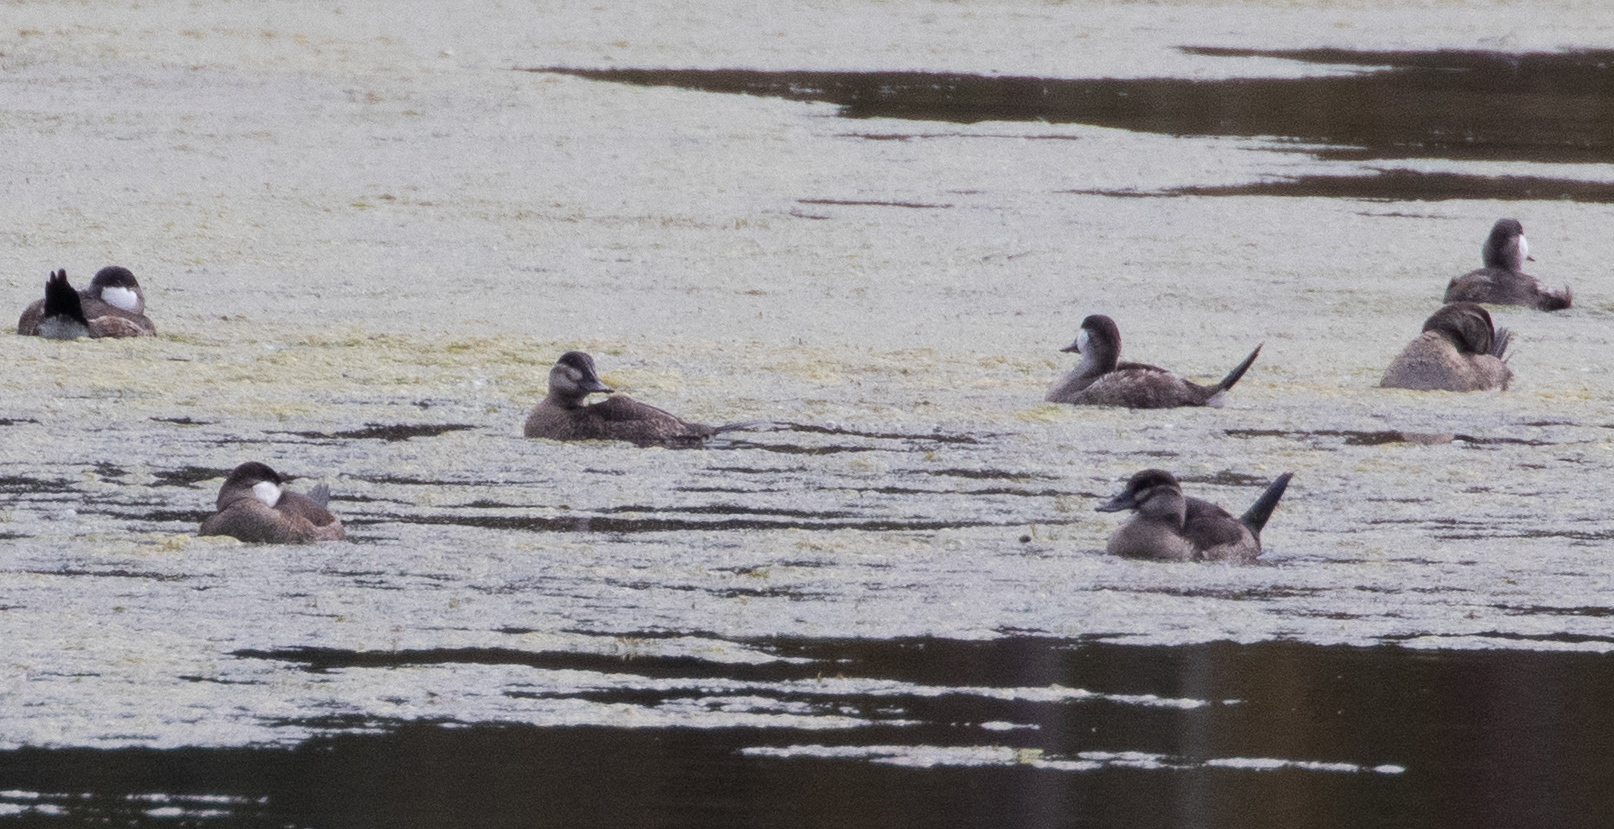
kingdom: Animalia
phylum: Chordata
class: Aves
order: Anseriformes
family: Anatidae
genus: Oxyura
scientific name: Oxyura jamaicensis
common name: Ruddy duck
